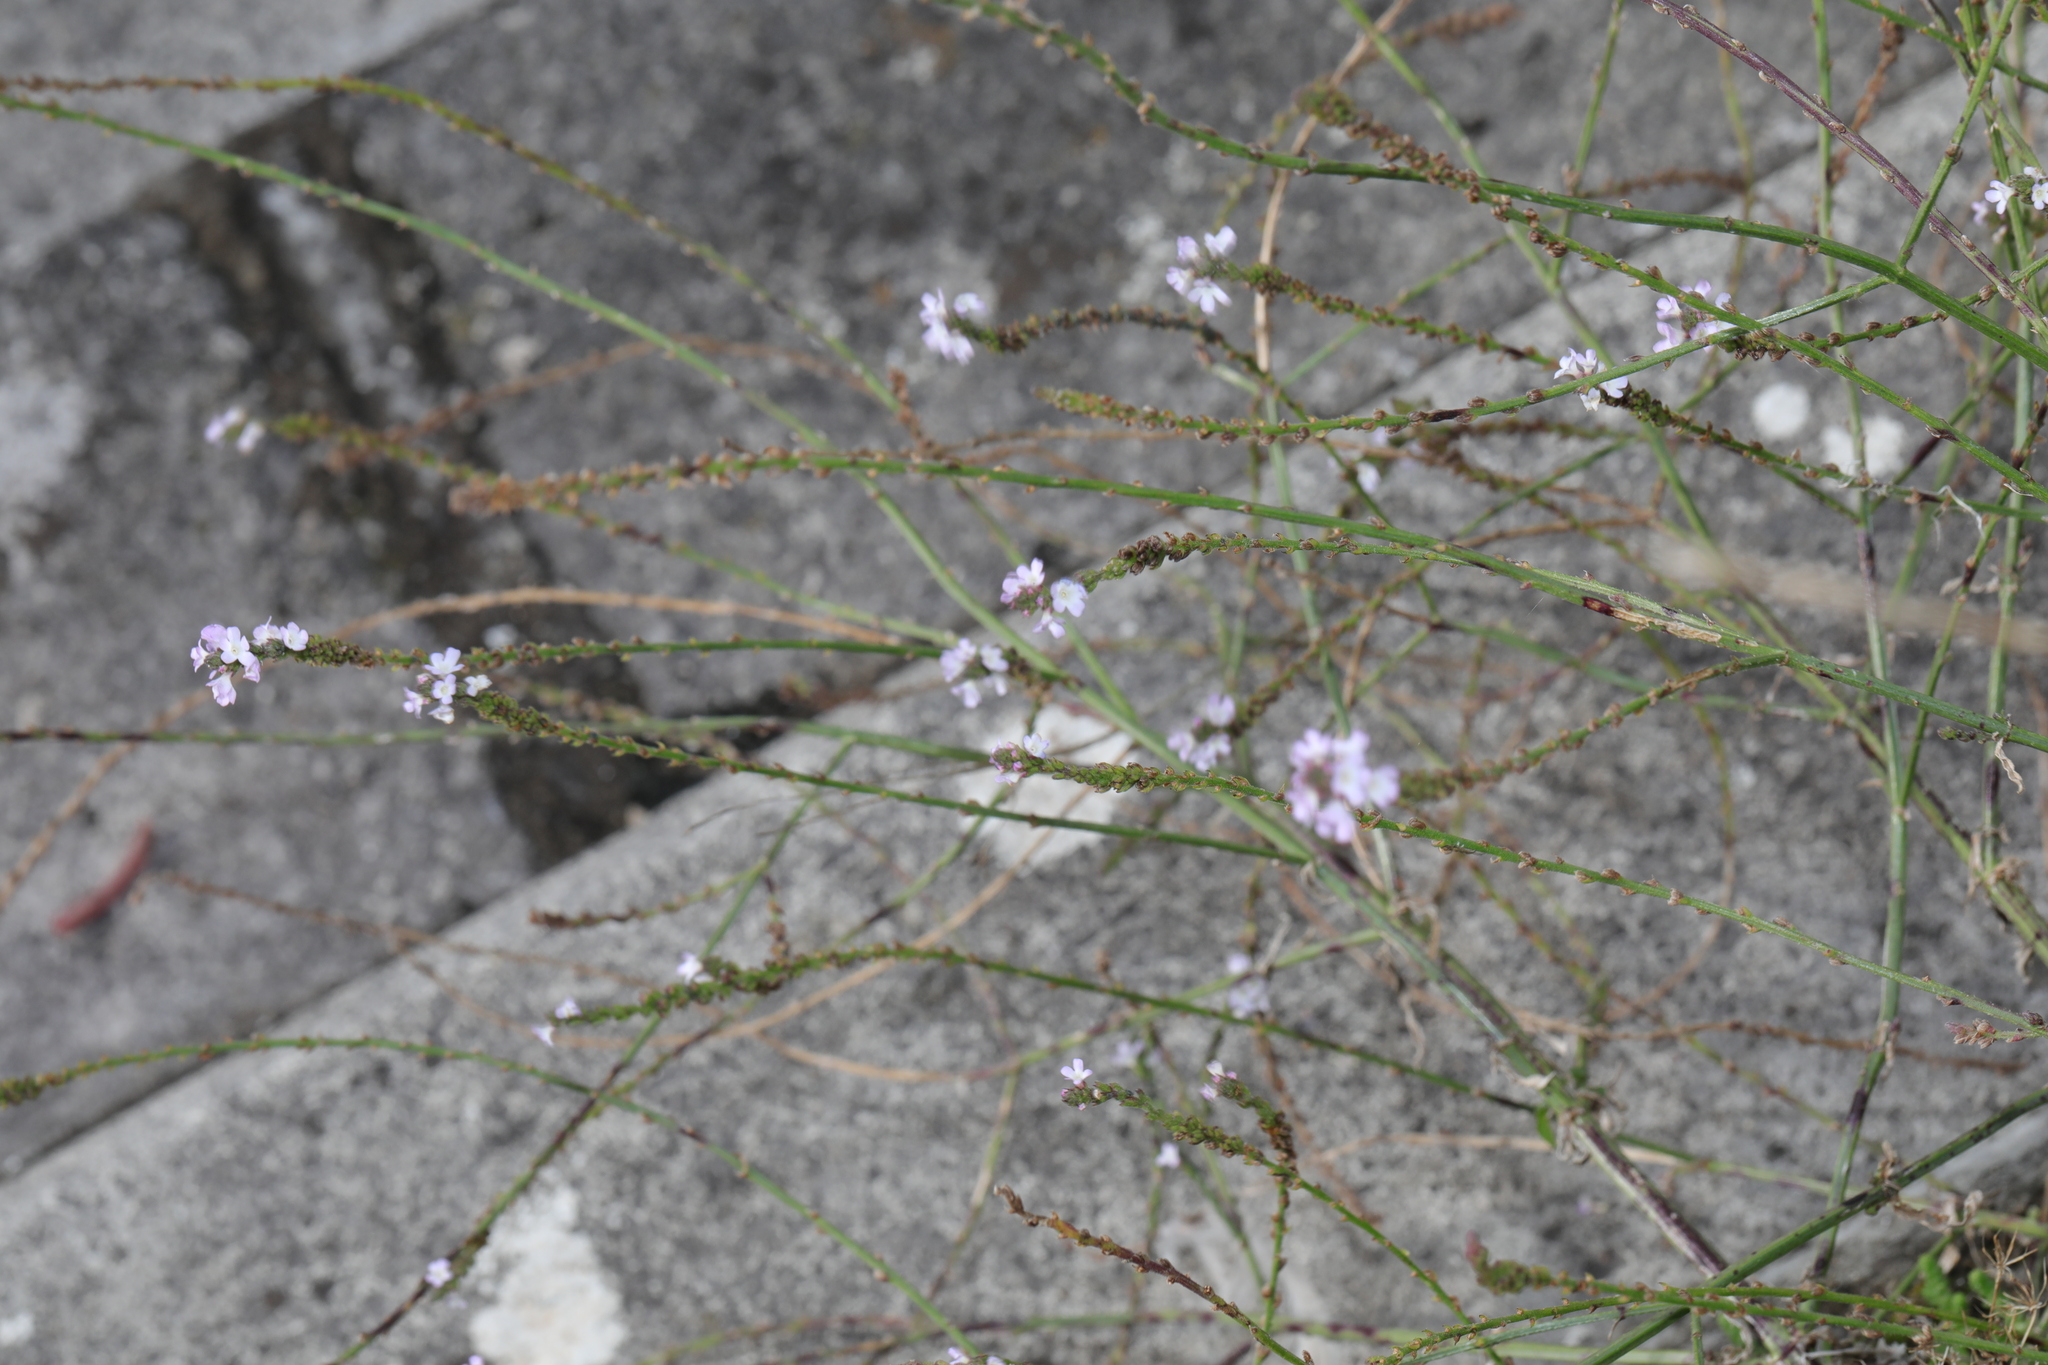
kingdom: Plantae
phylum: Tracheophyta
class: Magnoliopsida
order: Lamiales
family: Verbenaceae
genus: Verbena
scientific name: Verbena officinalis
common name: Vervain
